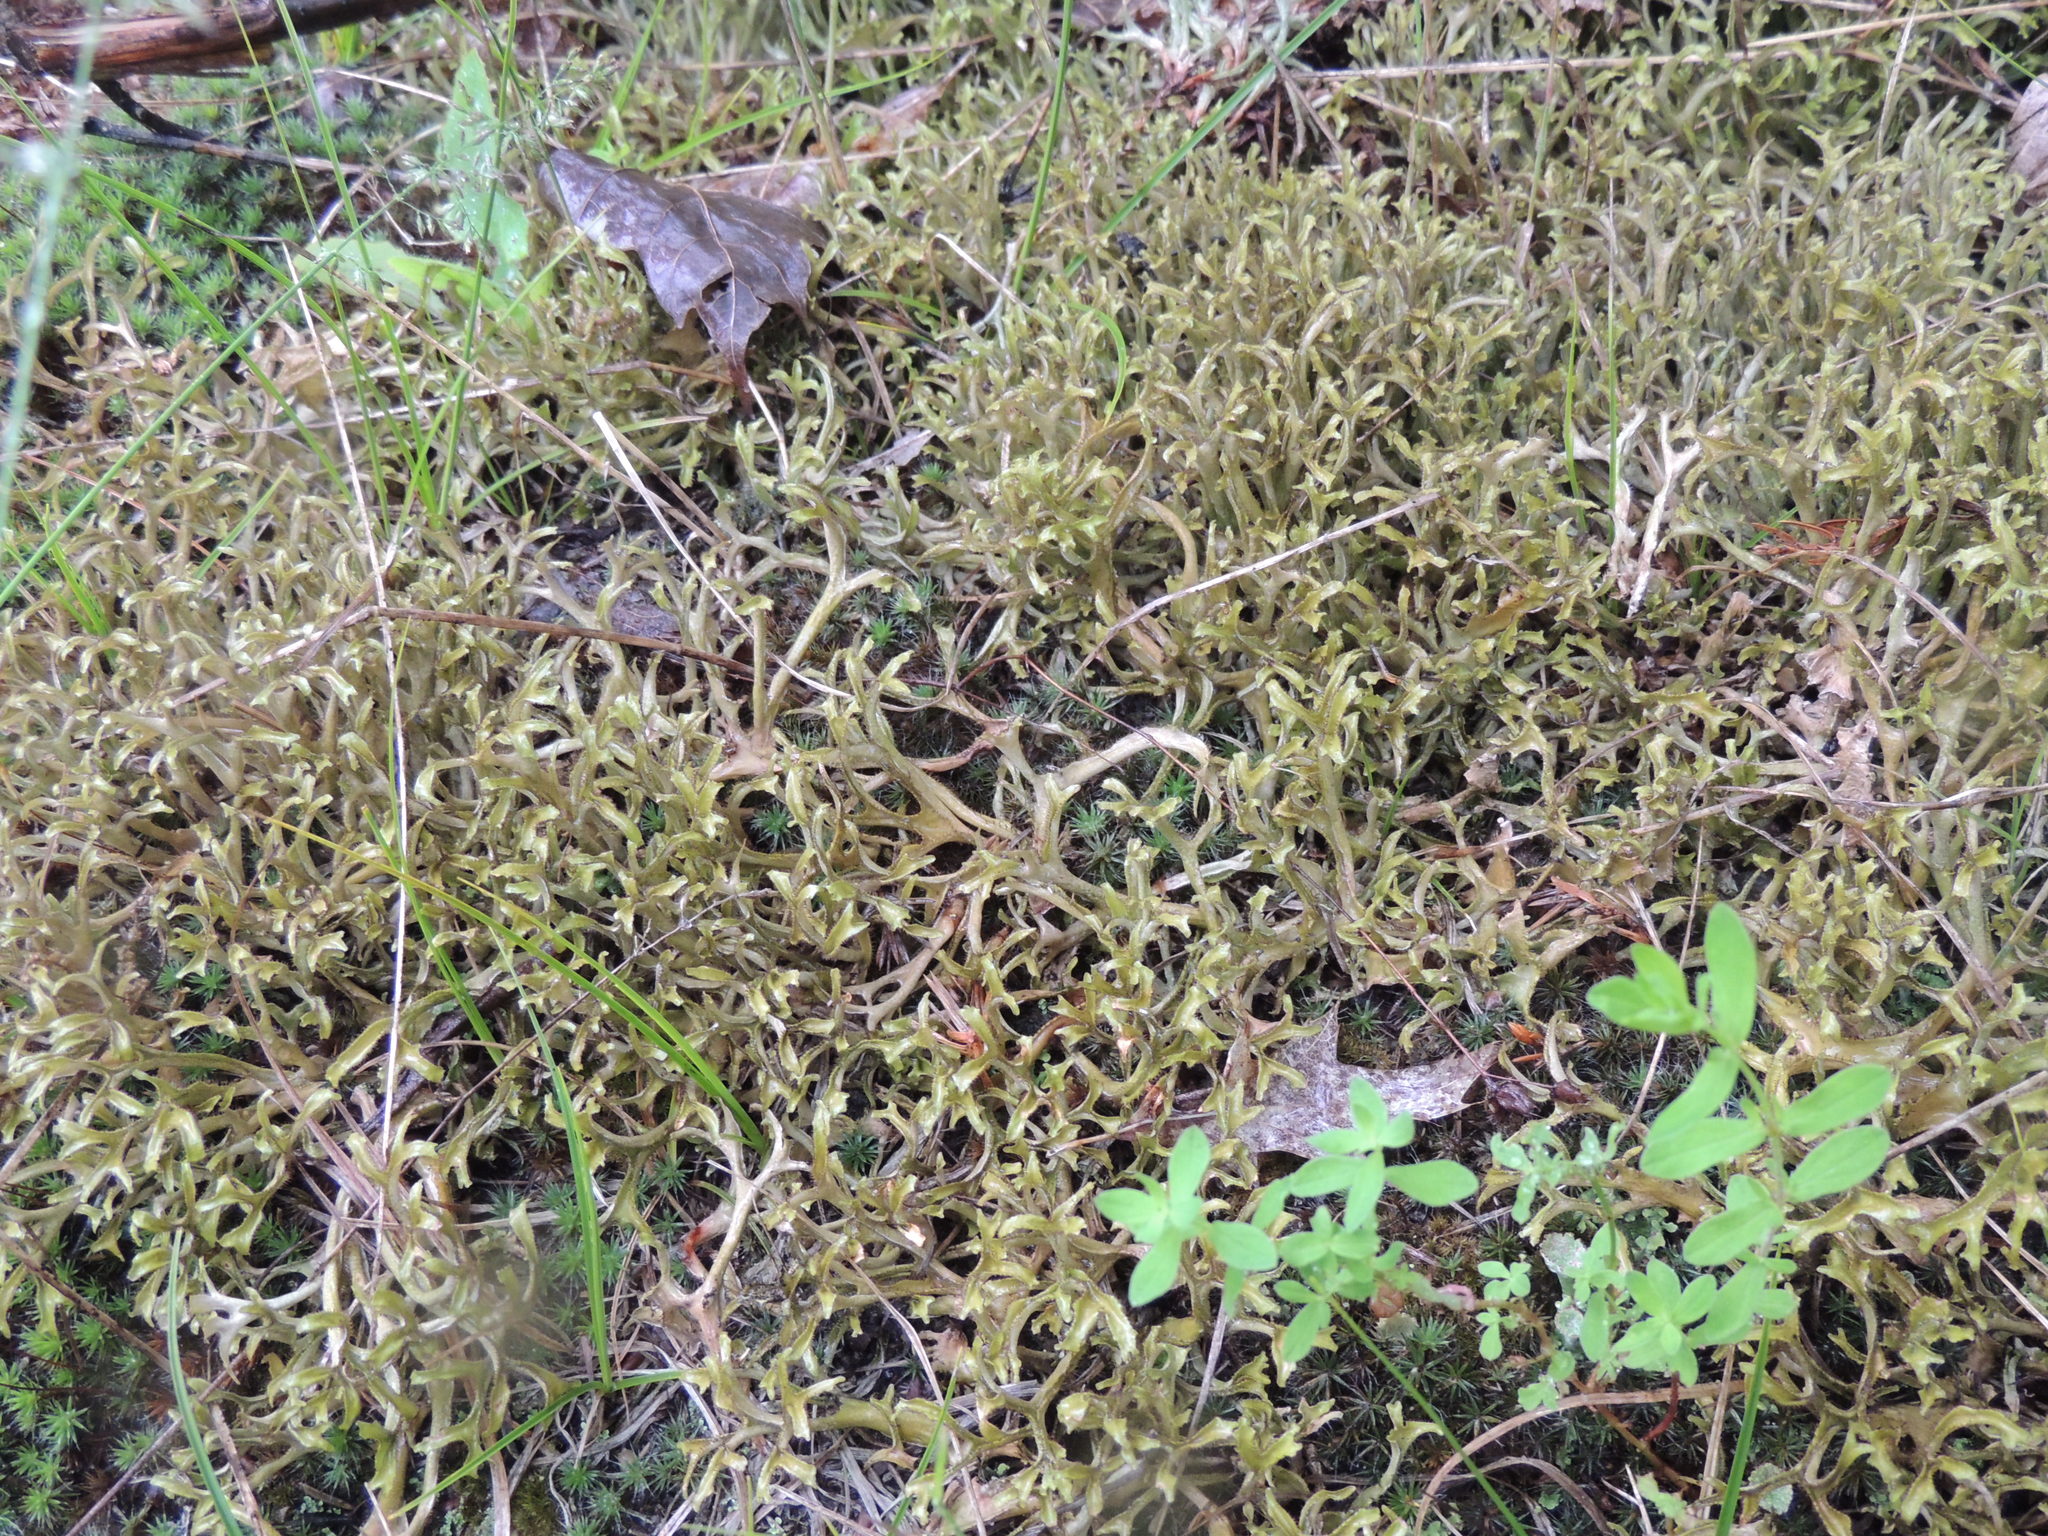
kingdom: Fungi
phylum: Ascomycota
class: Lecanoromycetes
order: Lecanorales
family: Parmeliaceae
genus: Cetraria
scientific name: Cetraria islandica
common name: Iceland lichen
